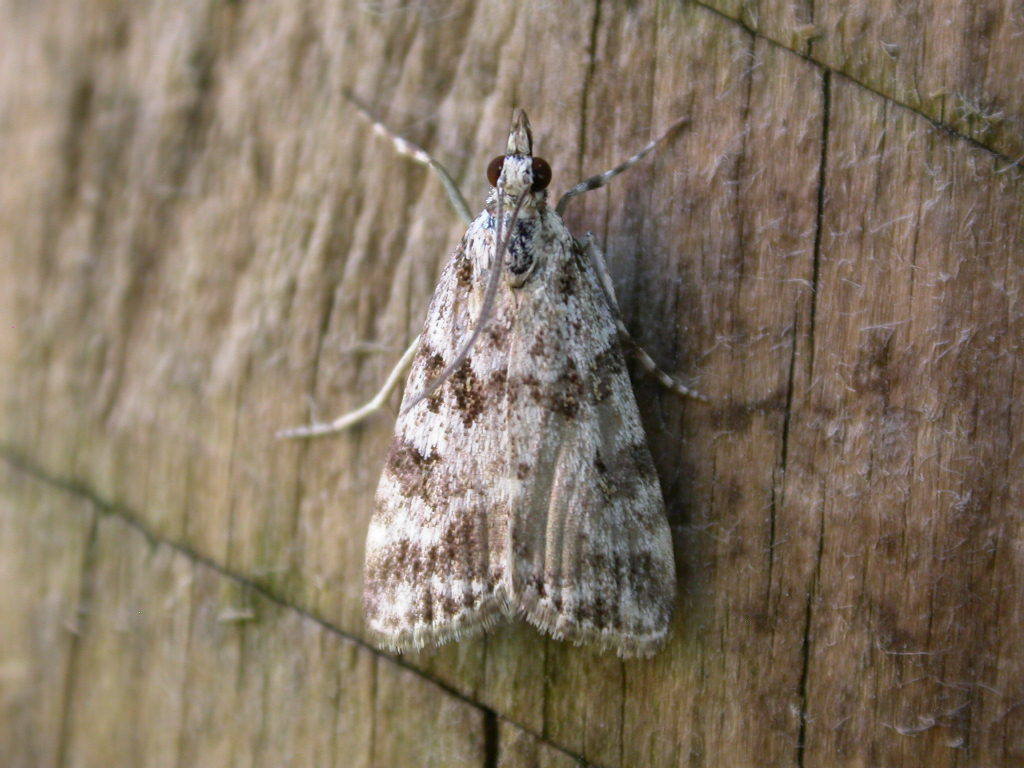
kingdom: Animalia
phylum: Arthropoda
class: Insecta
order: Lepidoptera
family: Crambidae
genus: Scoparia
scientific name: Scoparia pyralella
